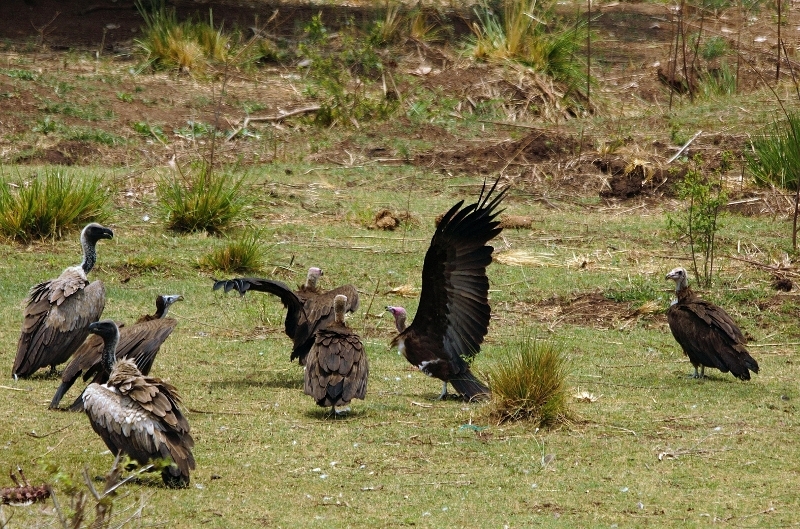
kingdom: Animalia
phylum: Chordata
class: Aves
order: Accipitriformes
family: Accipitridae
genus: Necrosyrtes
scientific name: Necrosyrtes monachus
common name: Hooded vulture
